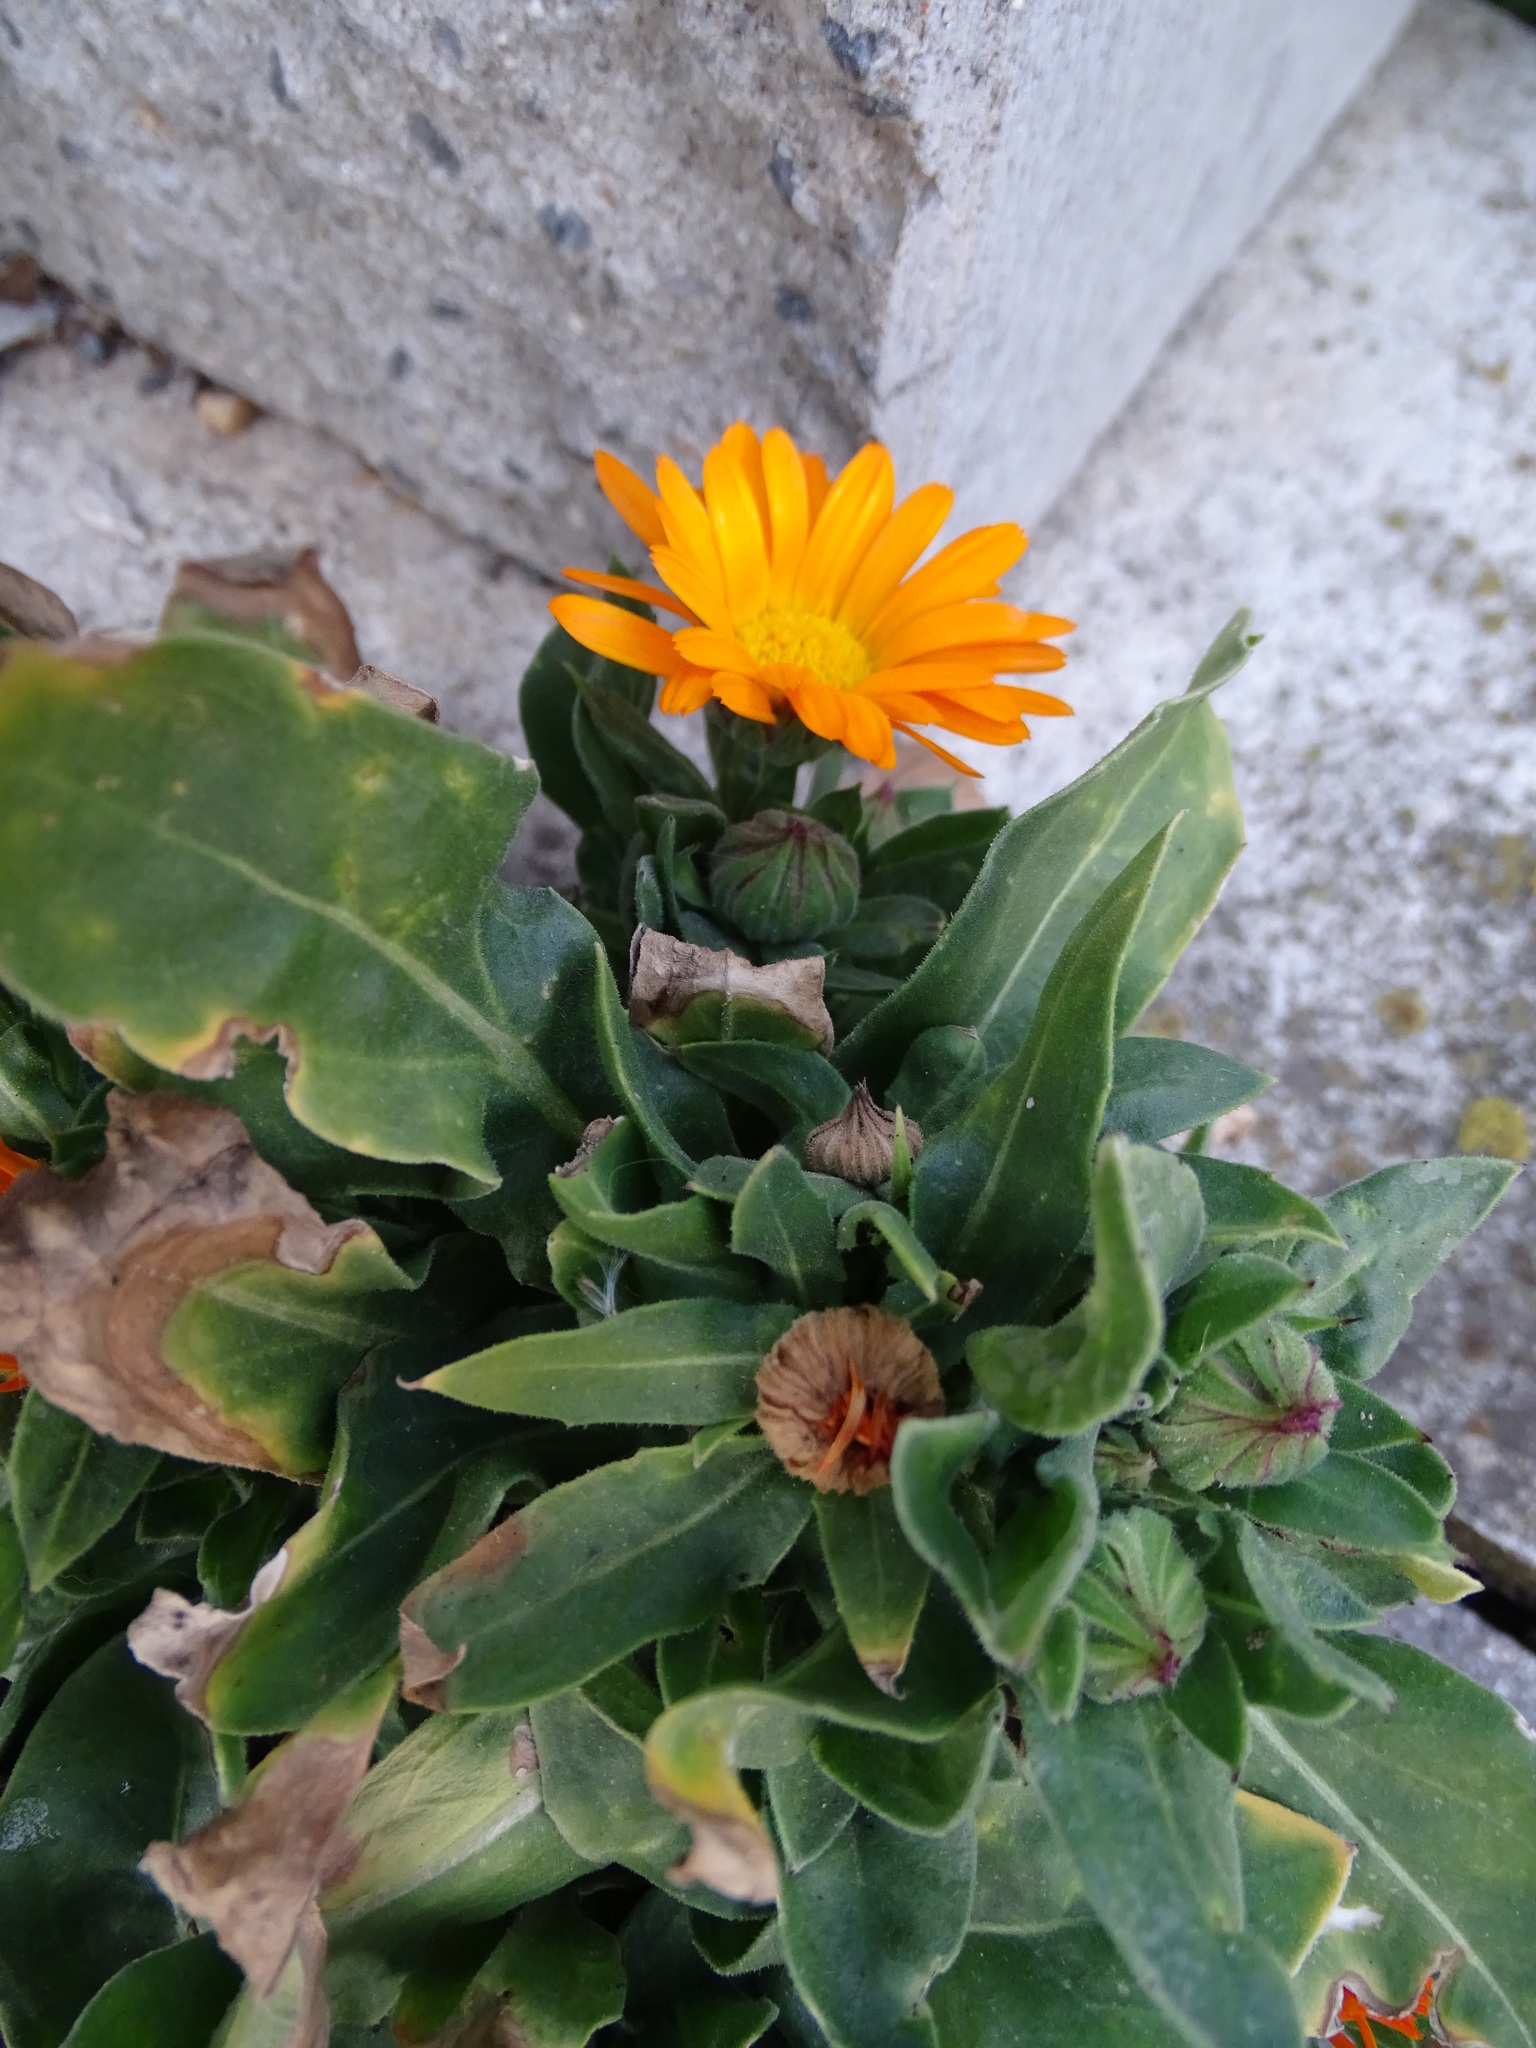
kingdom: Plantae
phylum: Tracheophyta
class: Magnoliopsida
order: Asterales
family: Asteraceae
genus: Calendula
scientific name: Calendula officinalis
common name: Pot marigold
